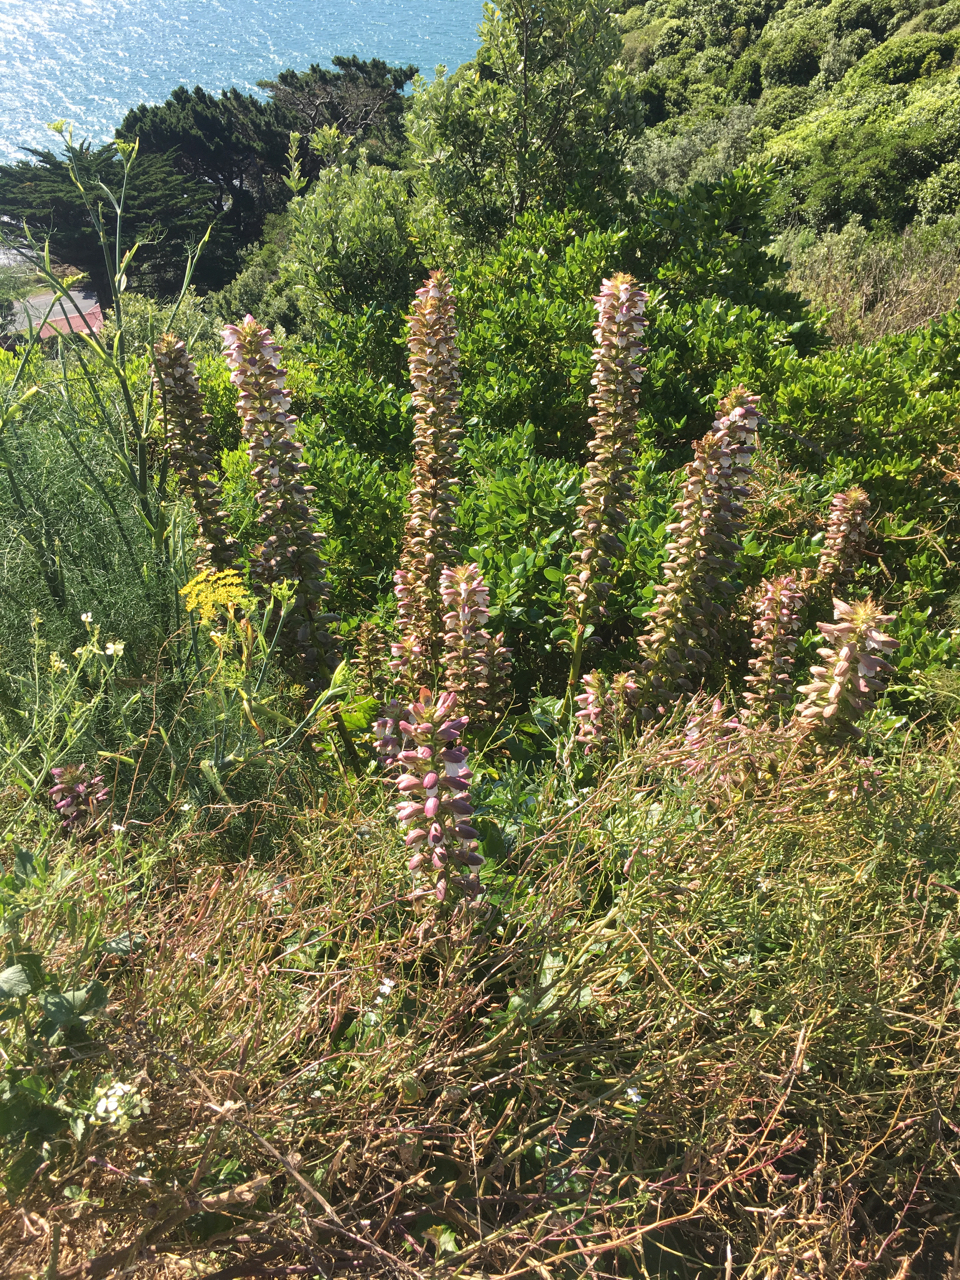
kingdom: Plantae
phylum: Tracheophyta
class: Magnoliopsida
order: Lamiales
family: Acanthaceae
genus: Acanthus
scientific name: Acanthus mollis
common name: Bear's-breech
